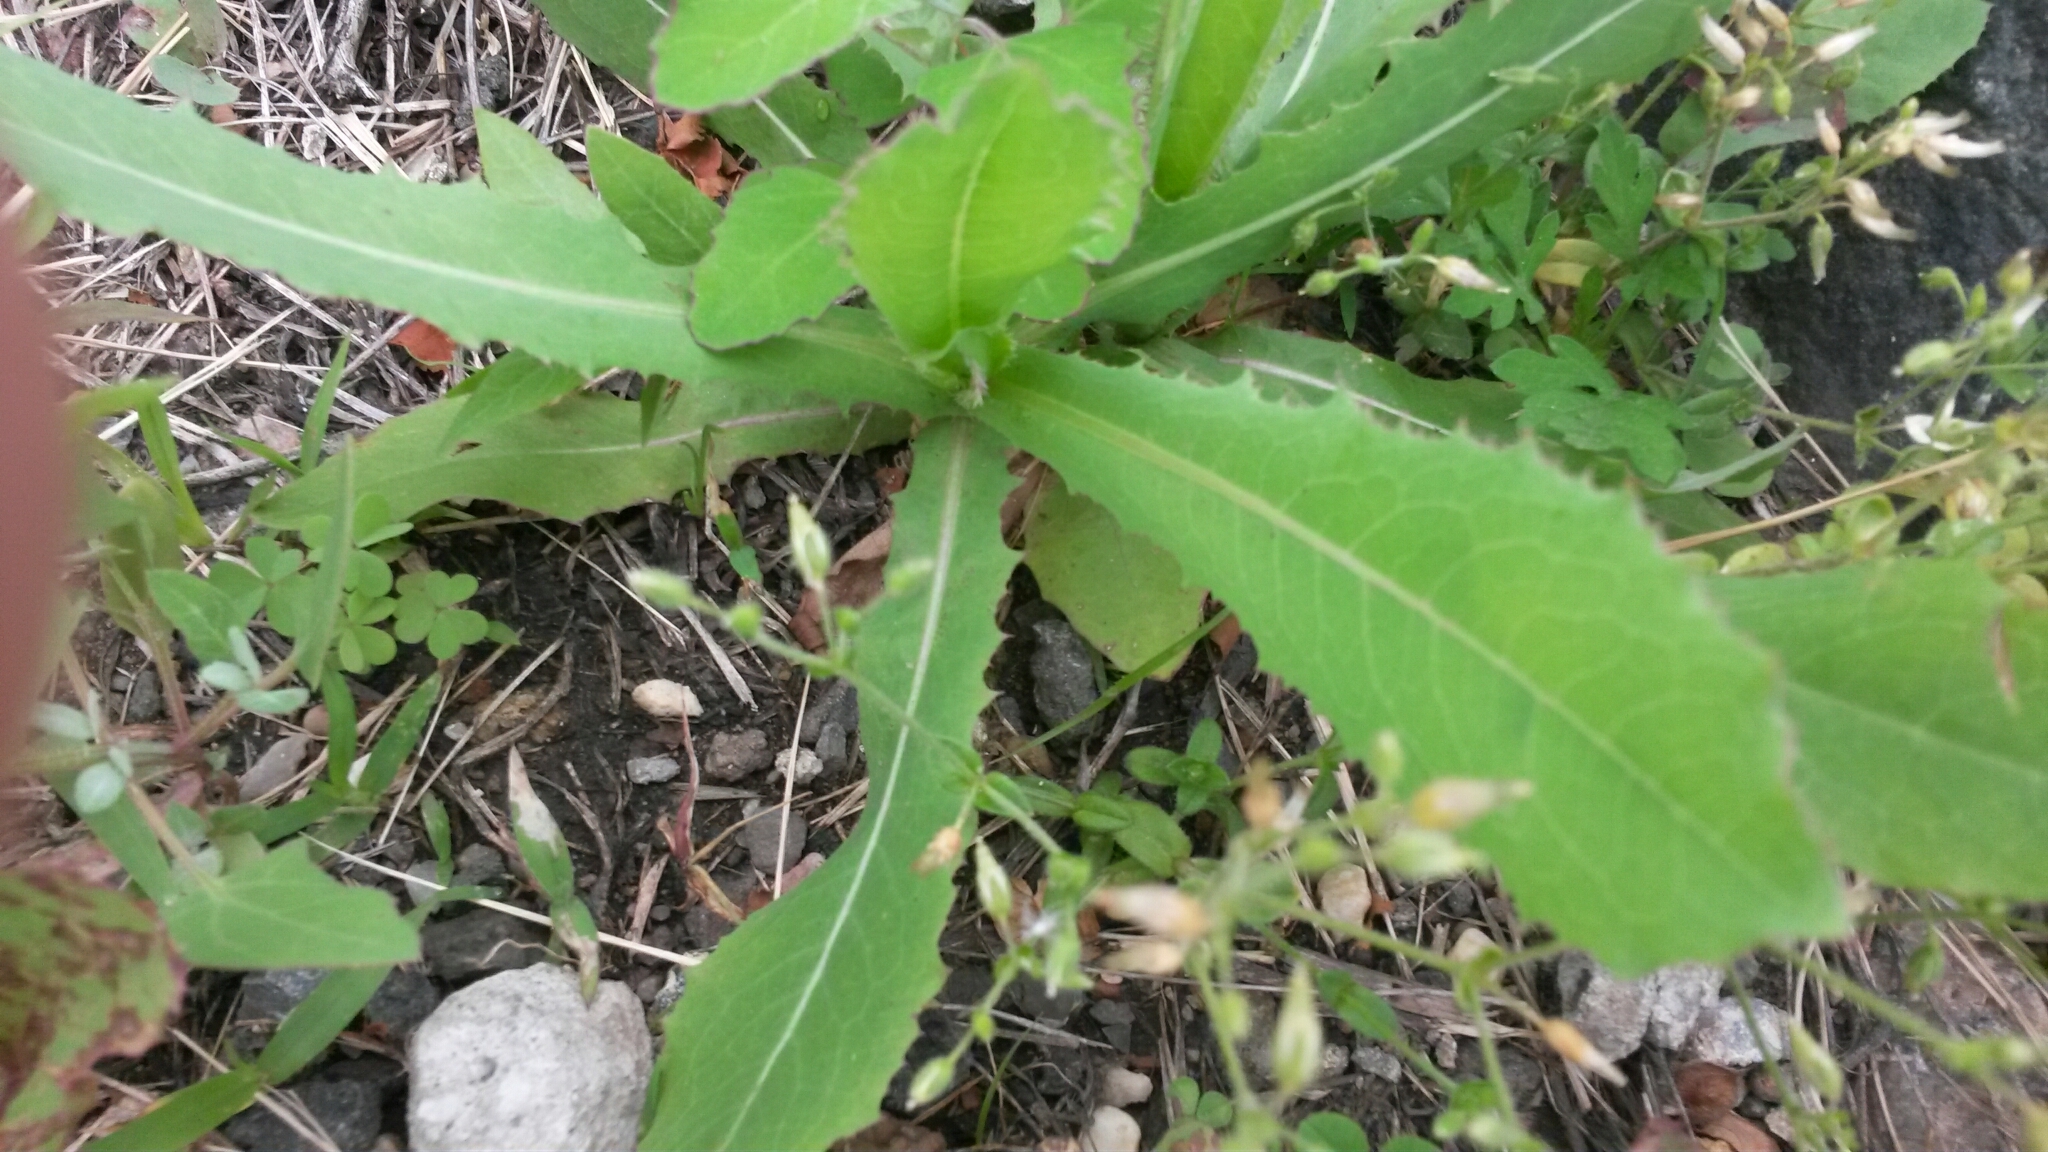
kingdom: Plantae
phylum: Tracheophyta
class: Magnoliopsida
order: Asterales
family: Asteraceae
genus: Lactuca
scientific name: Lactuca serriola
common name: Prickly lettuce
